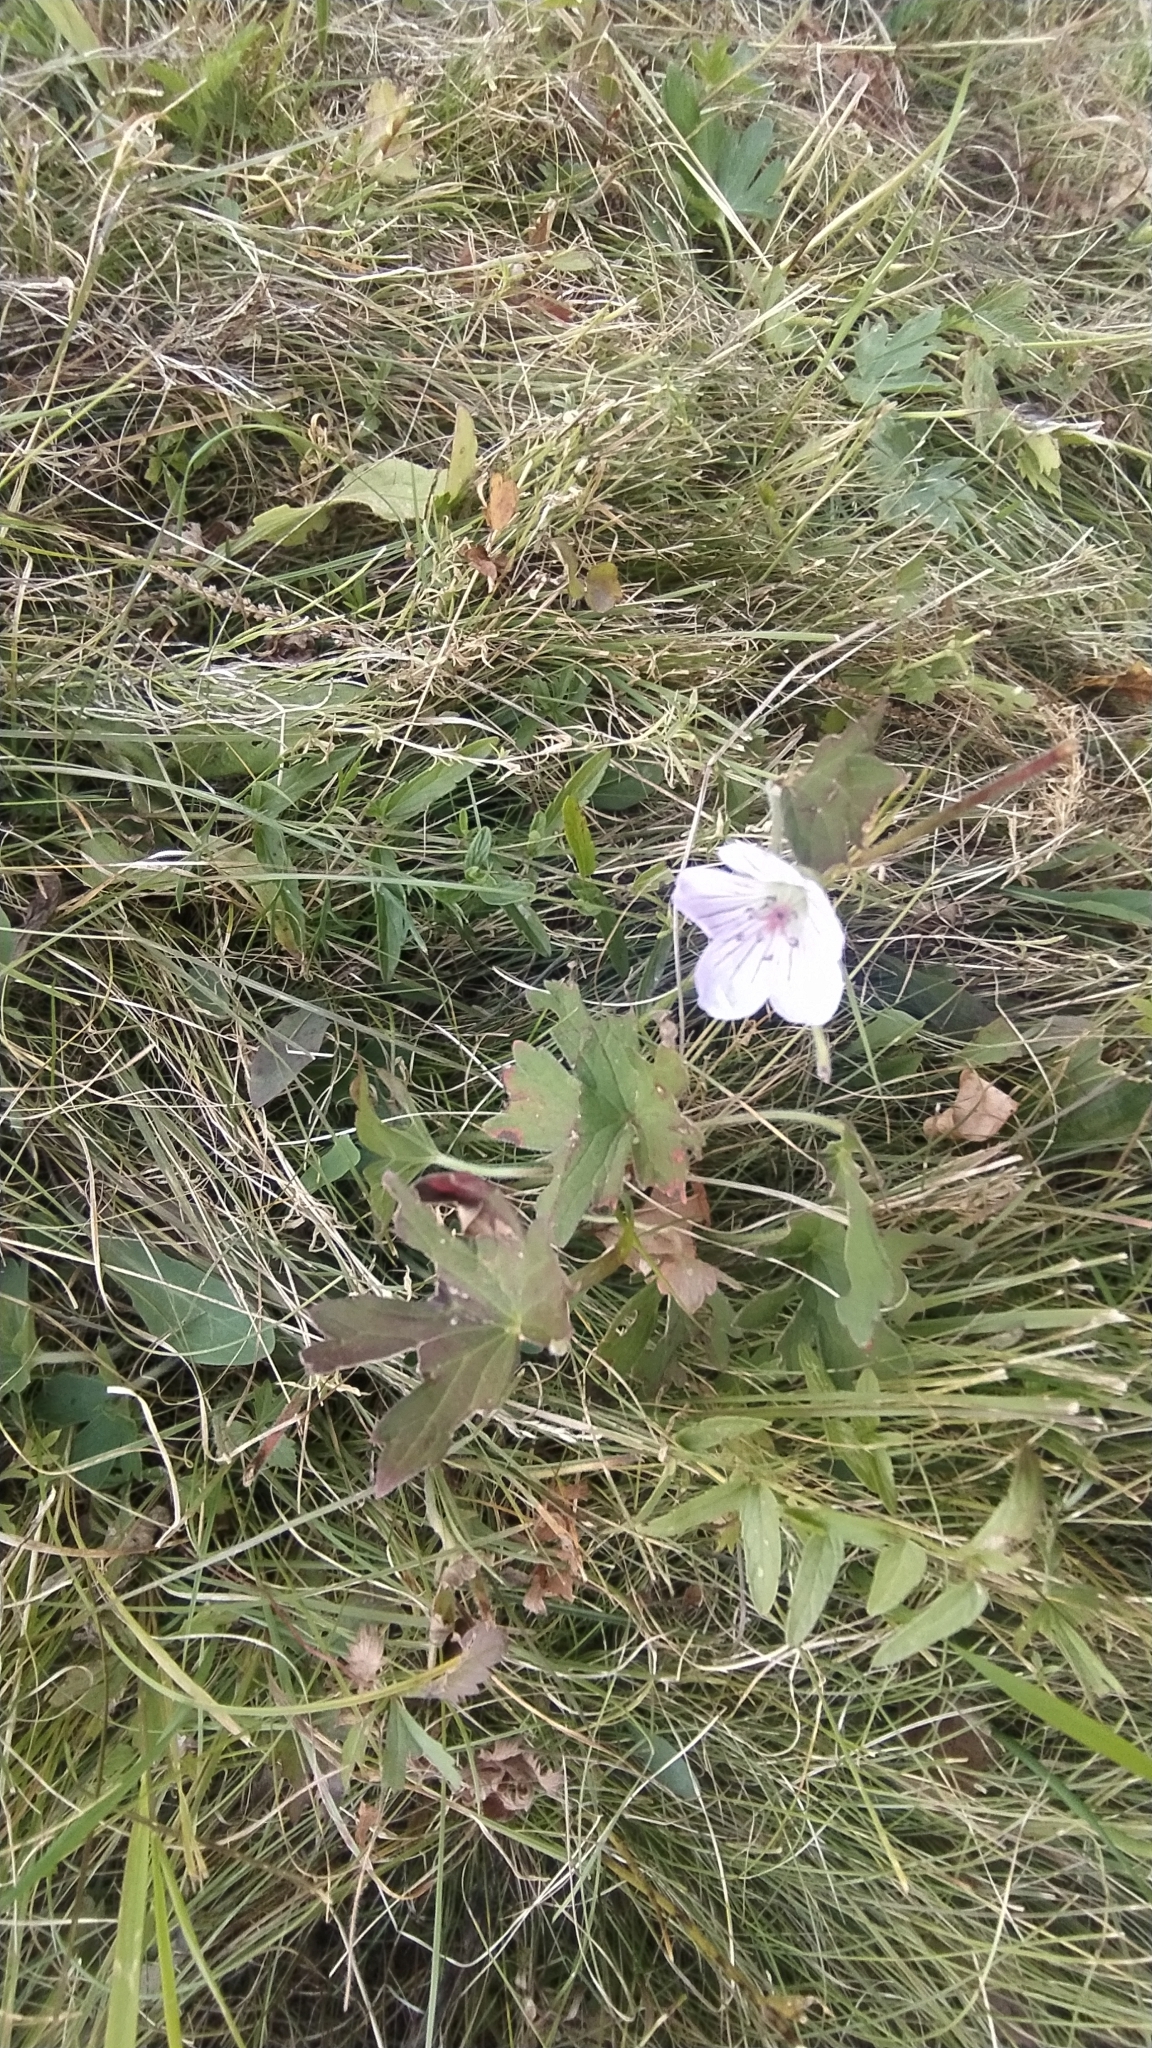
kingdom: Plantae
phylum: Tracheophyta
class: Magnoliopsida
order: Geraniales
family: Geraniaceae
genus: Geranium
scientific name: Geranium wlassovianum
